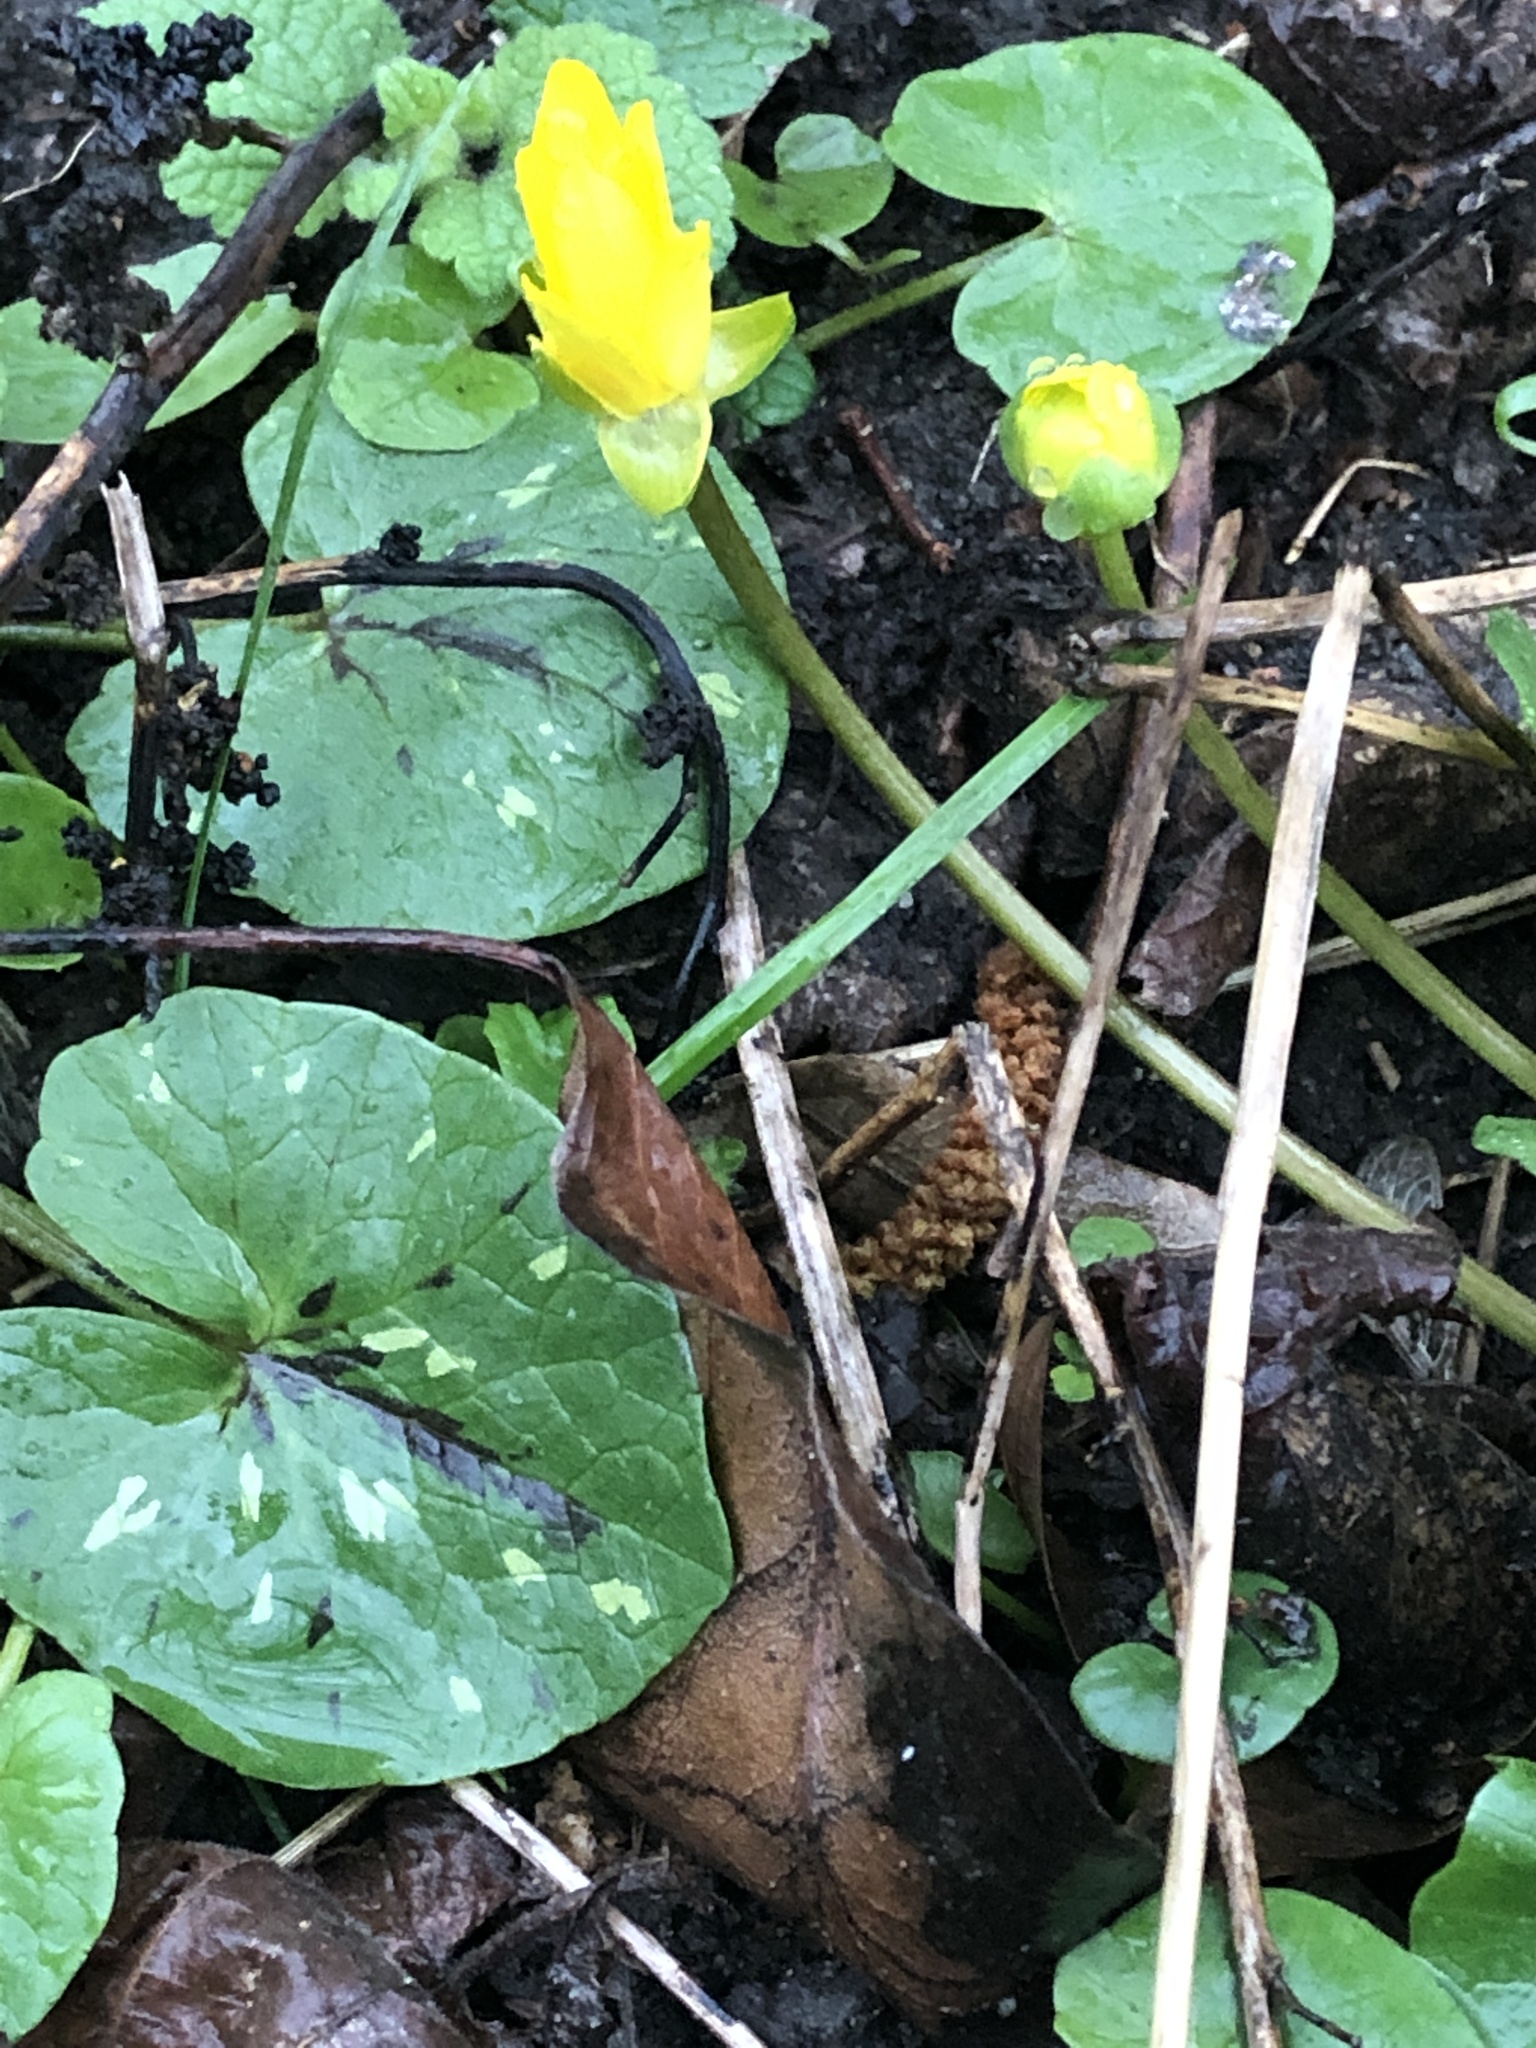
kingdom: Plantae
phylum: Tracheophyta
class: Magnoliopsida
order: Ranunculales
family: Ranunculaceae
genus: Ficaria
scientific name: Ficaria verna
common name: Lesser celandine
